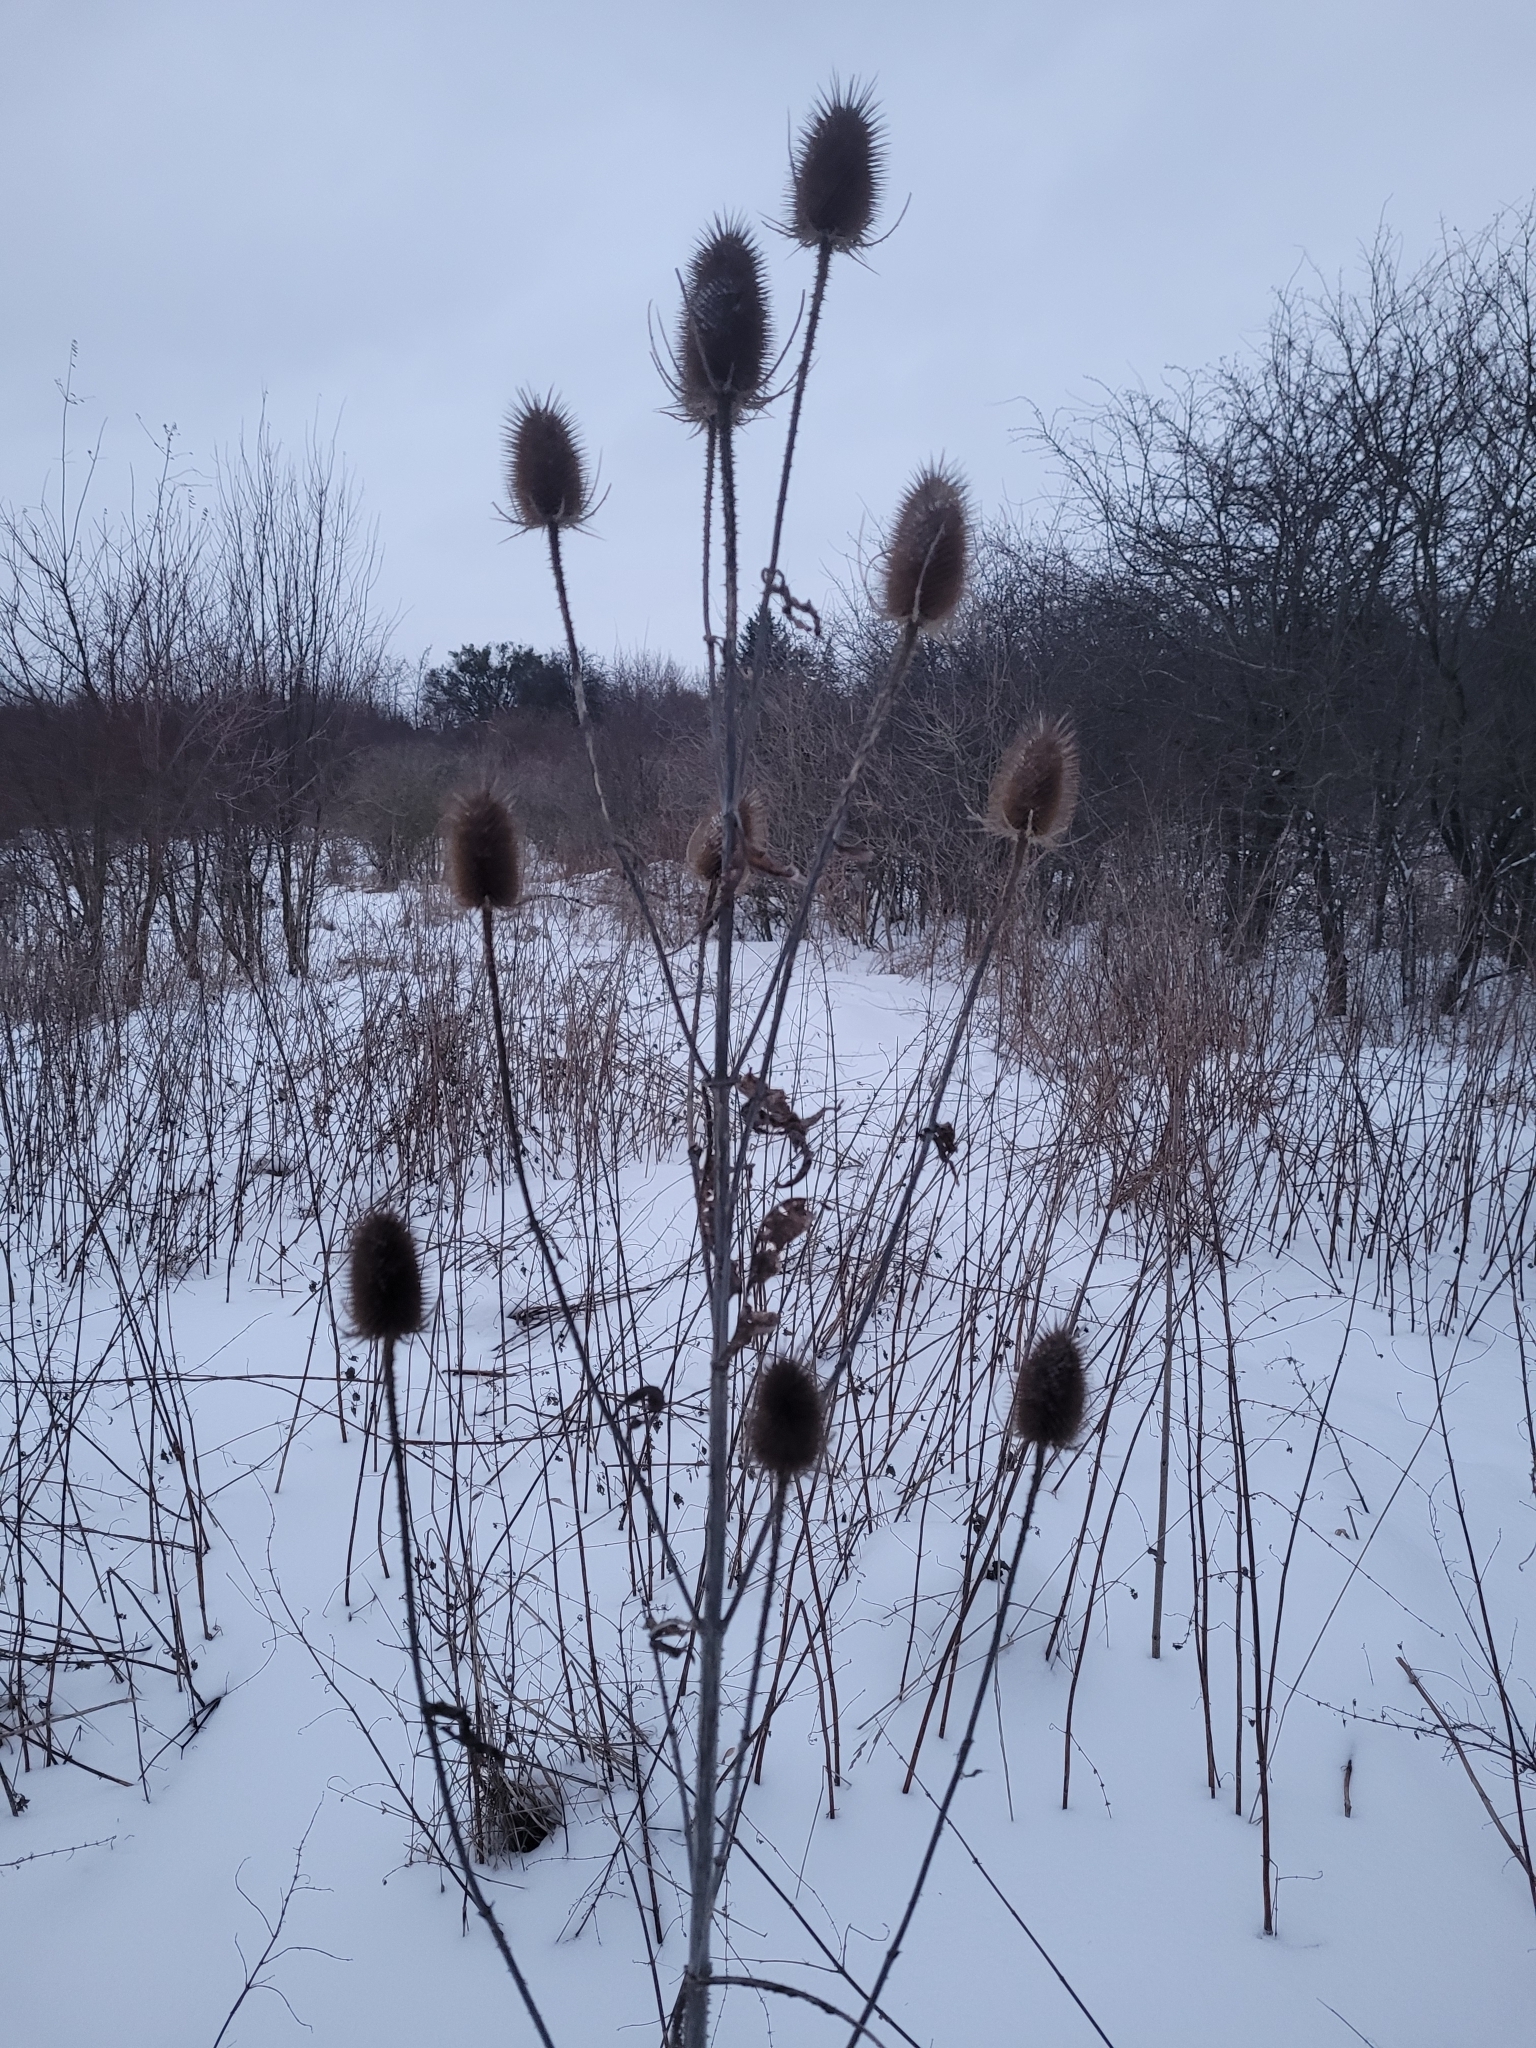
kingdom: Plantae
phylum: Tracheophyta
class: Magnoliopsida
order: Dipsacales
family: Caprifoliaceae
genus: Dipsacus
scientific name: Dipsacus fullonum
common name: Teasel
